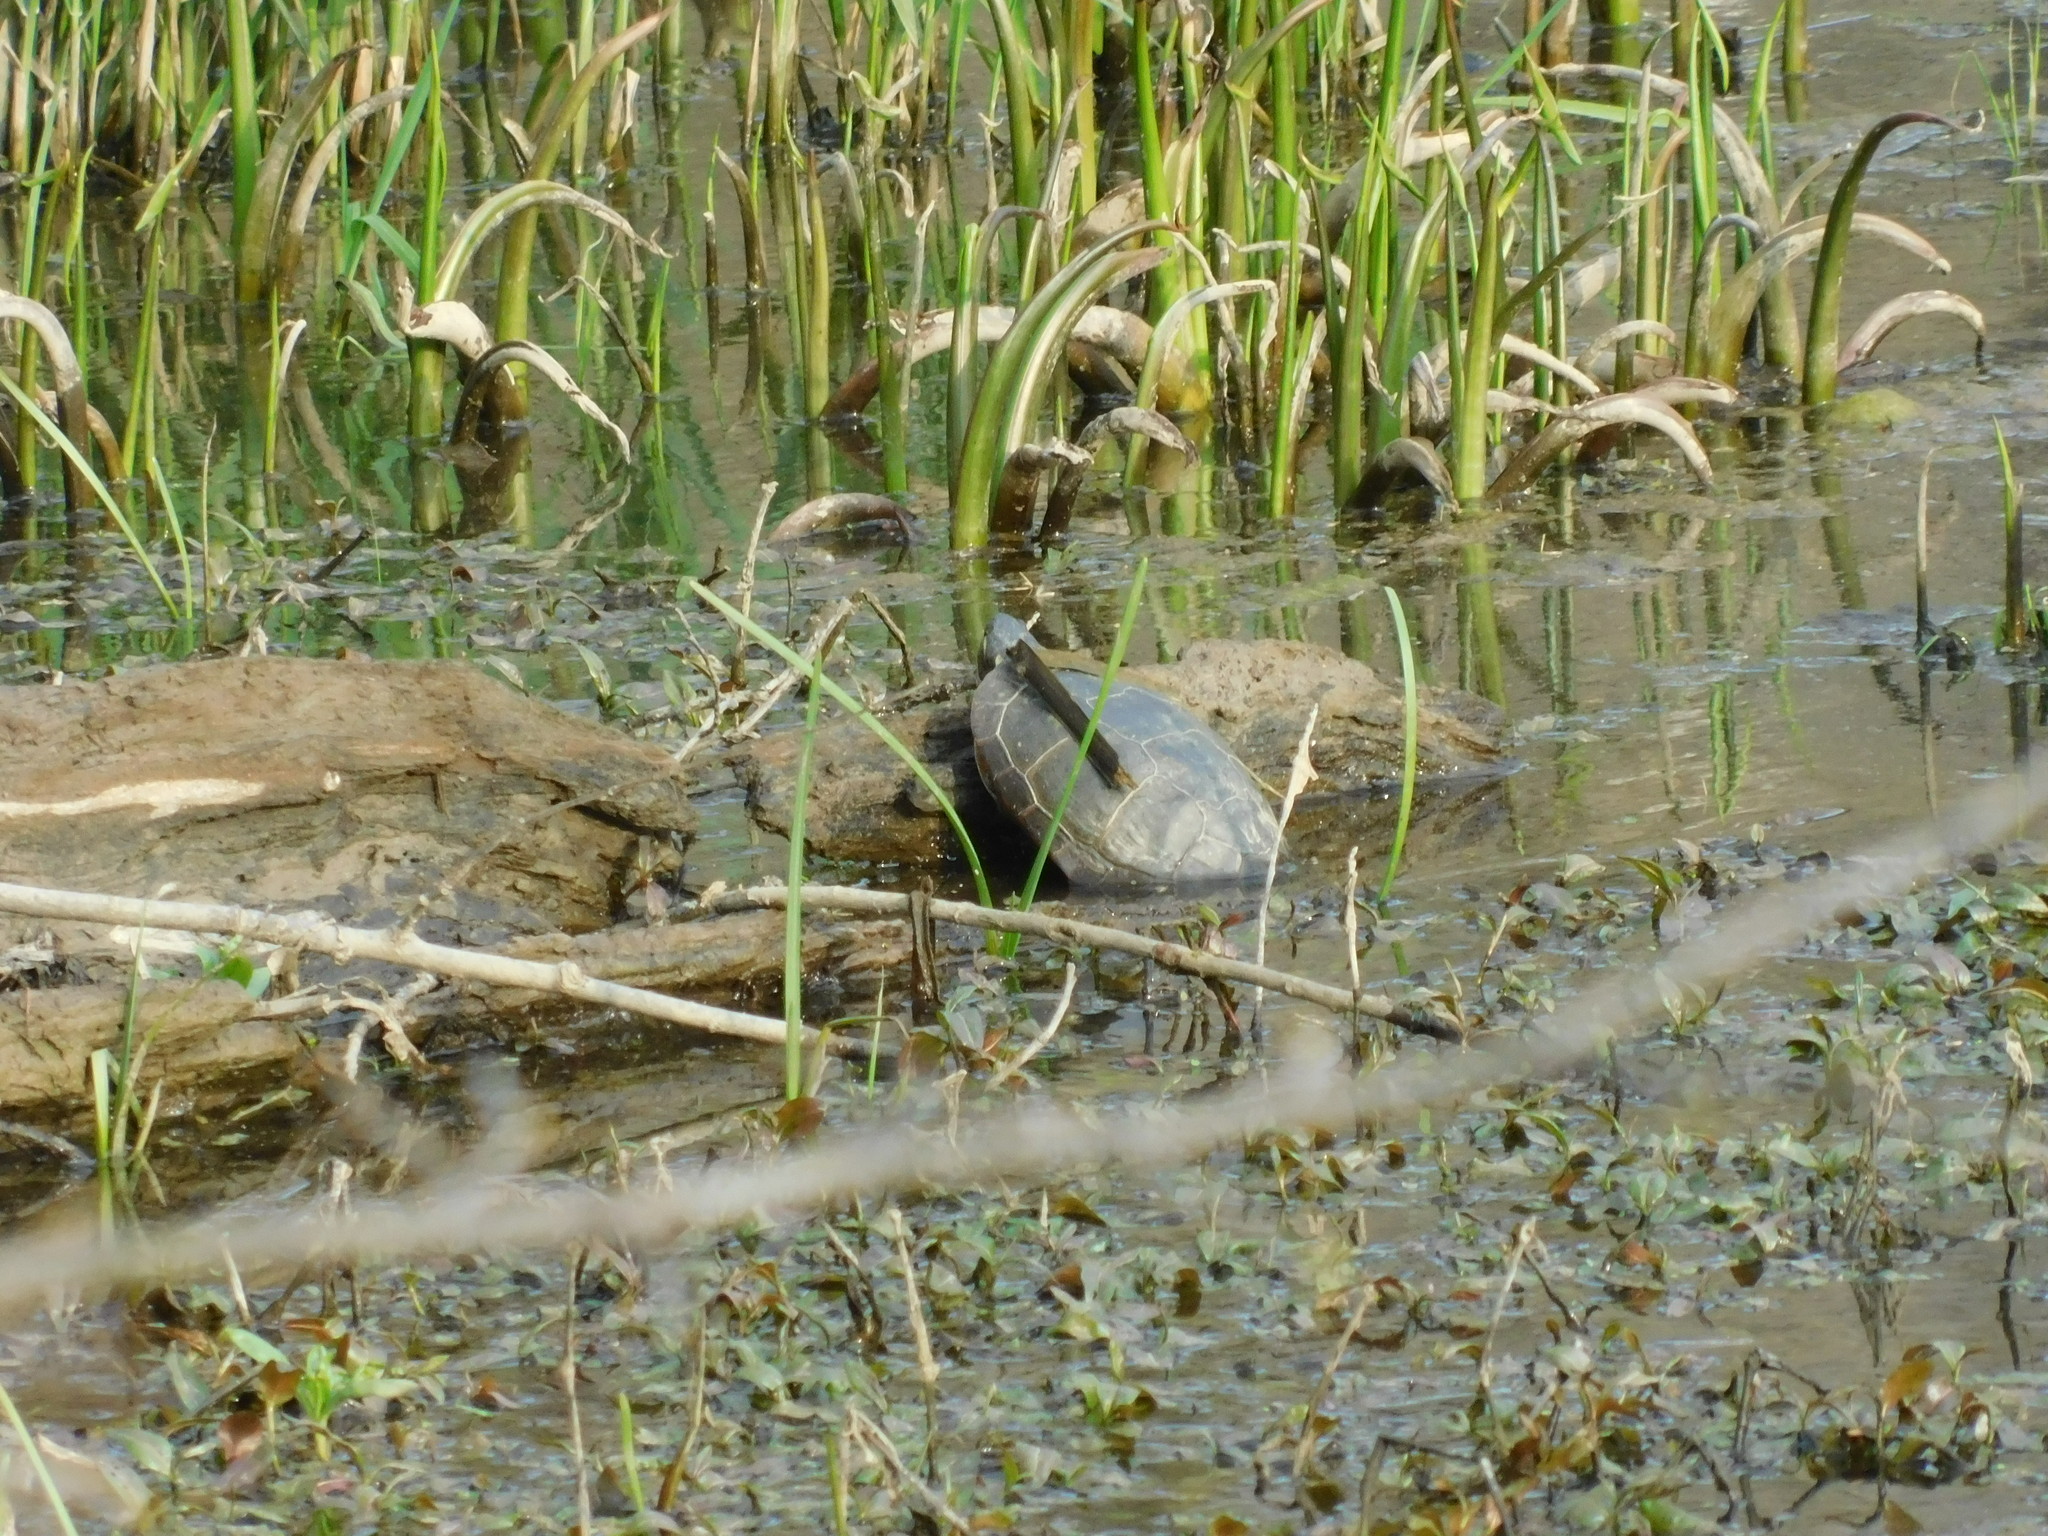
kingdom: Animalia
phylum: Chordata
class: Testudines
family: Emydidae
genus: Chrysemys
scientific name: Chrysemys picta
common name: Painted turtle
